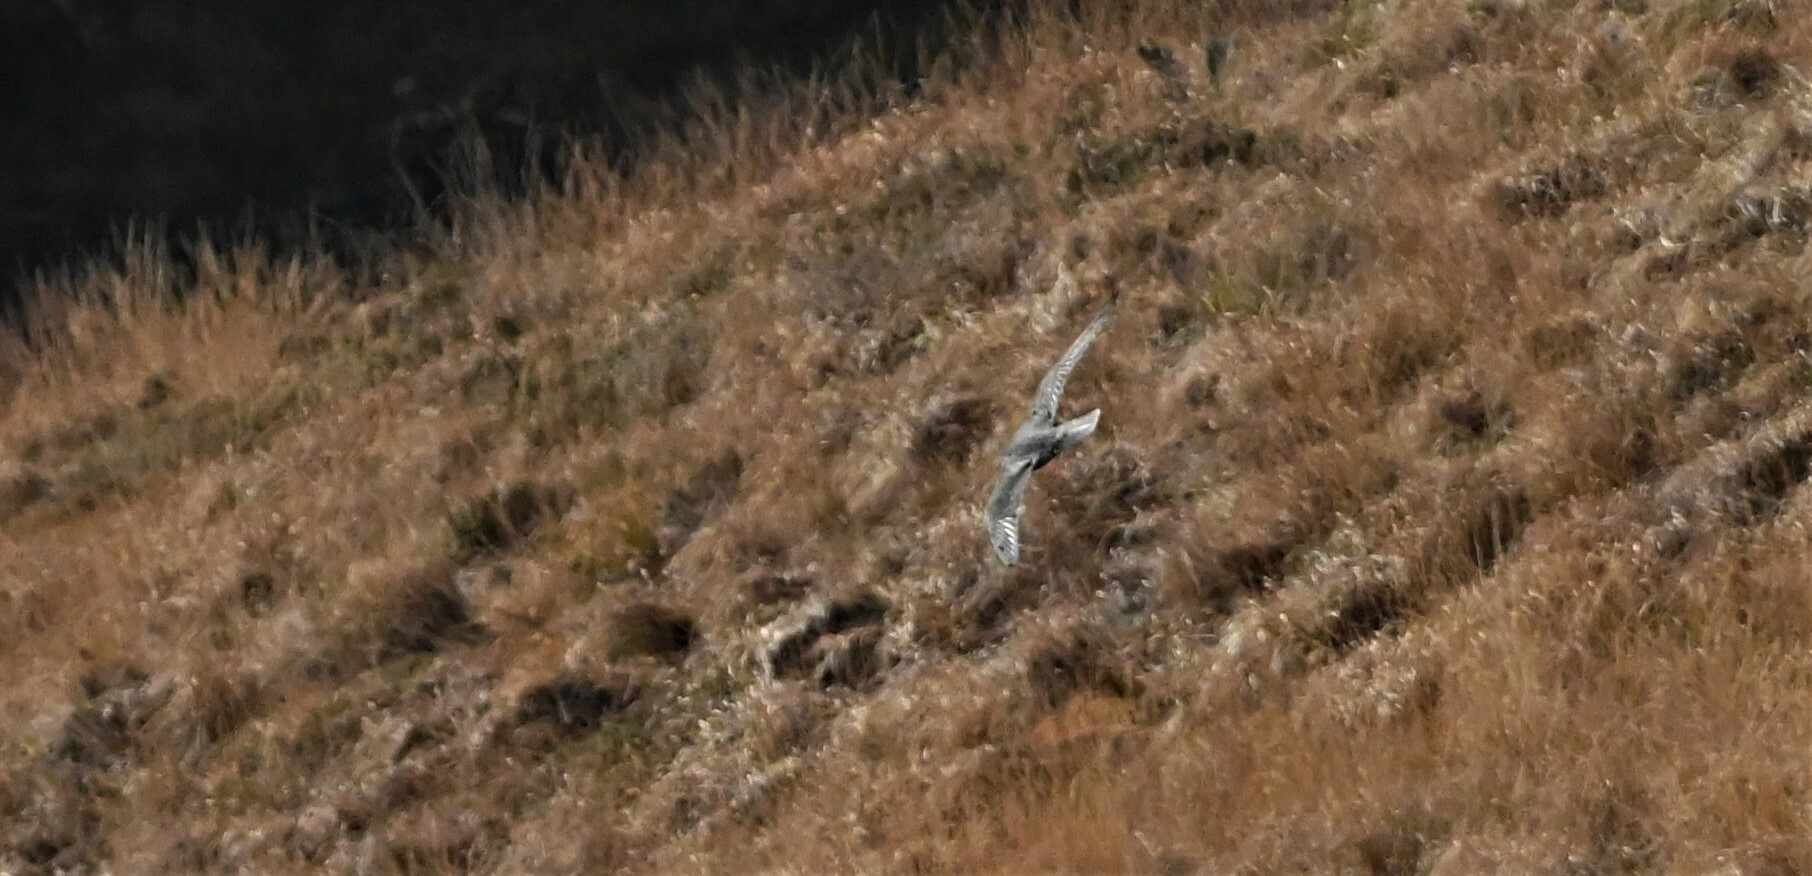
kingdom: Animalia
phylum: Chordata
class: Aves
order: Falconiformes
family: Falconidae
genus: Falco
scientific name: Falco peregrinus
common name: Peregrine falcon
